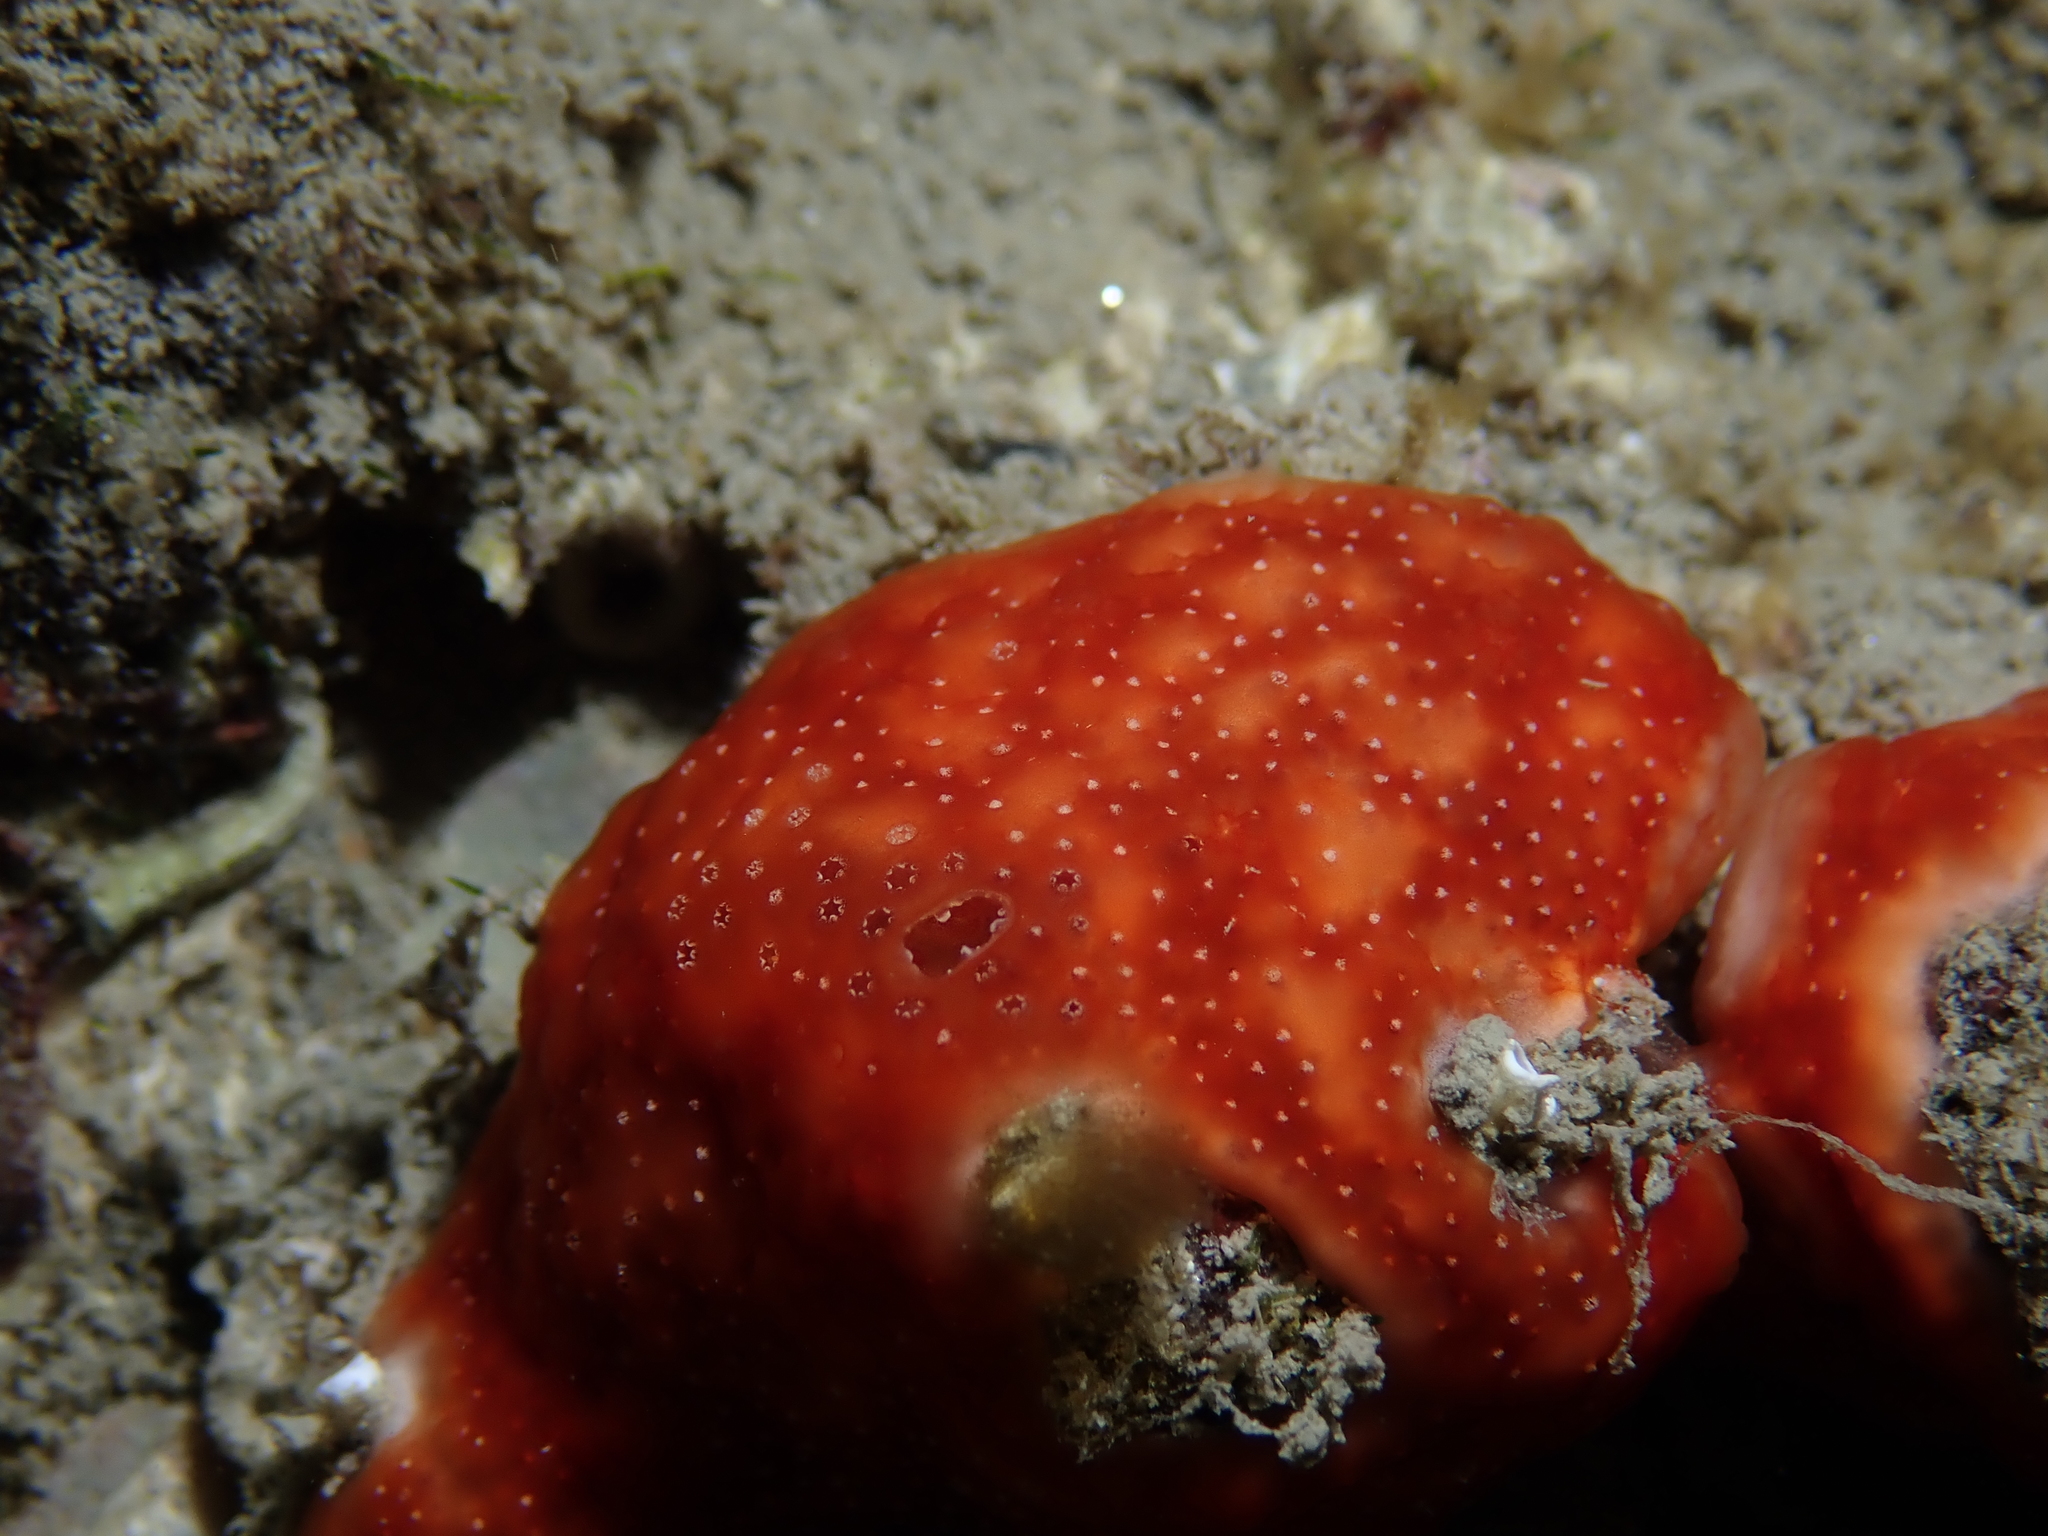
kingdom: Animalia
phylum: Chordata
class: Ascidiacea
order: Aplousobranchia
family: Didemnidae
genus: Polysyncraton
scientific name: Polysyncraton lacazei
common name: Colonial sea squirt
